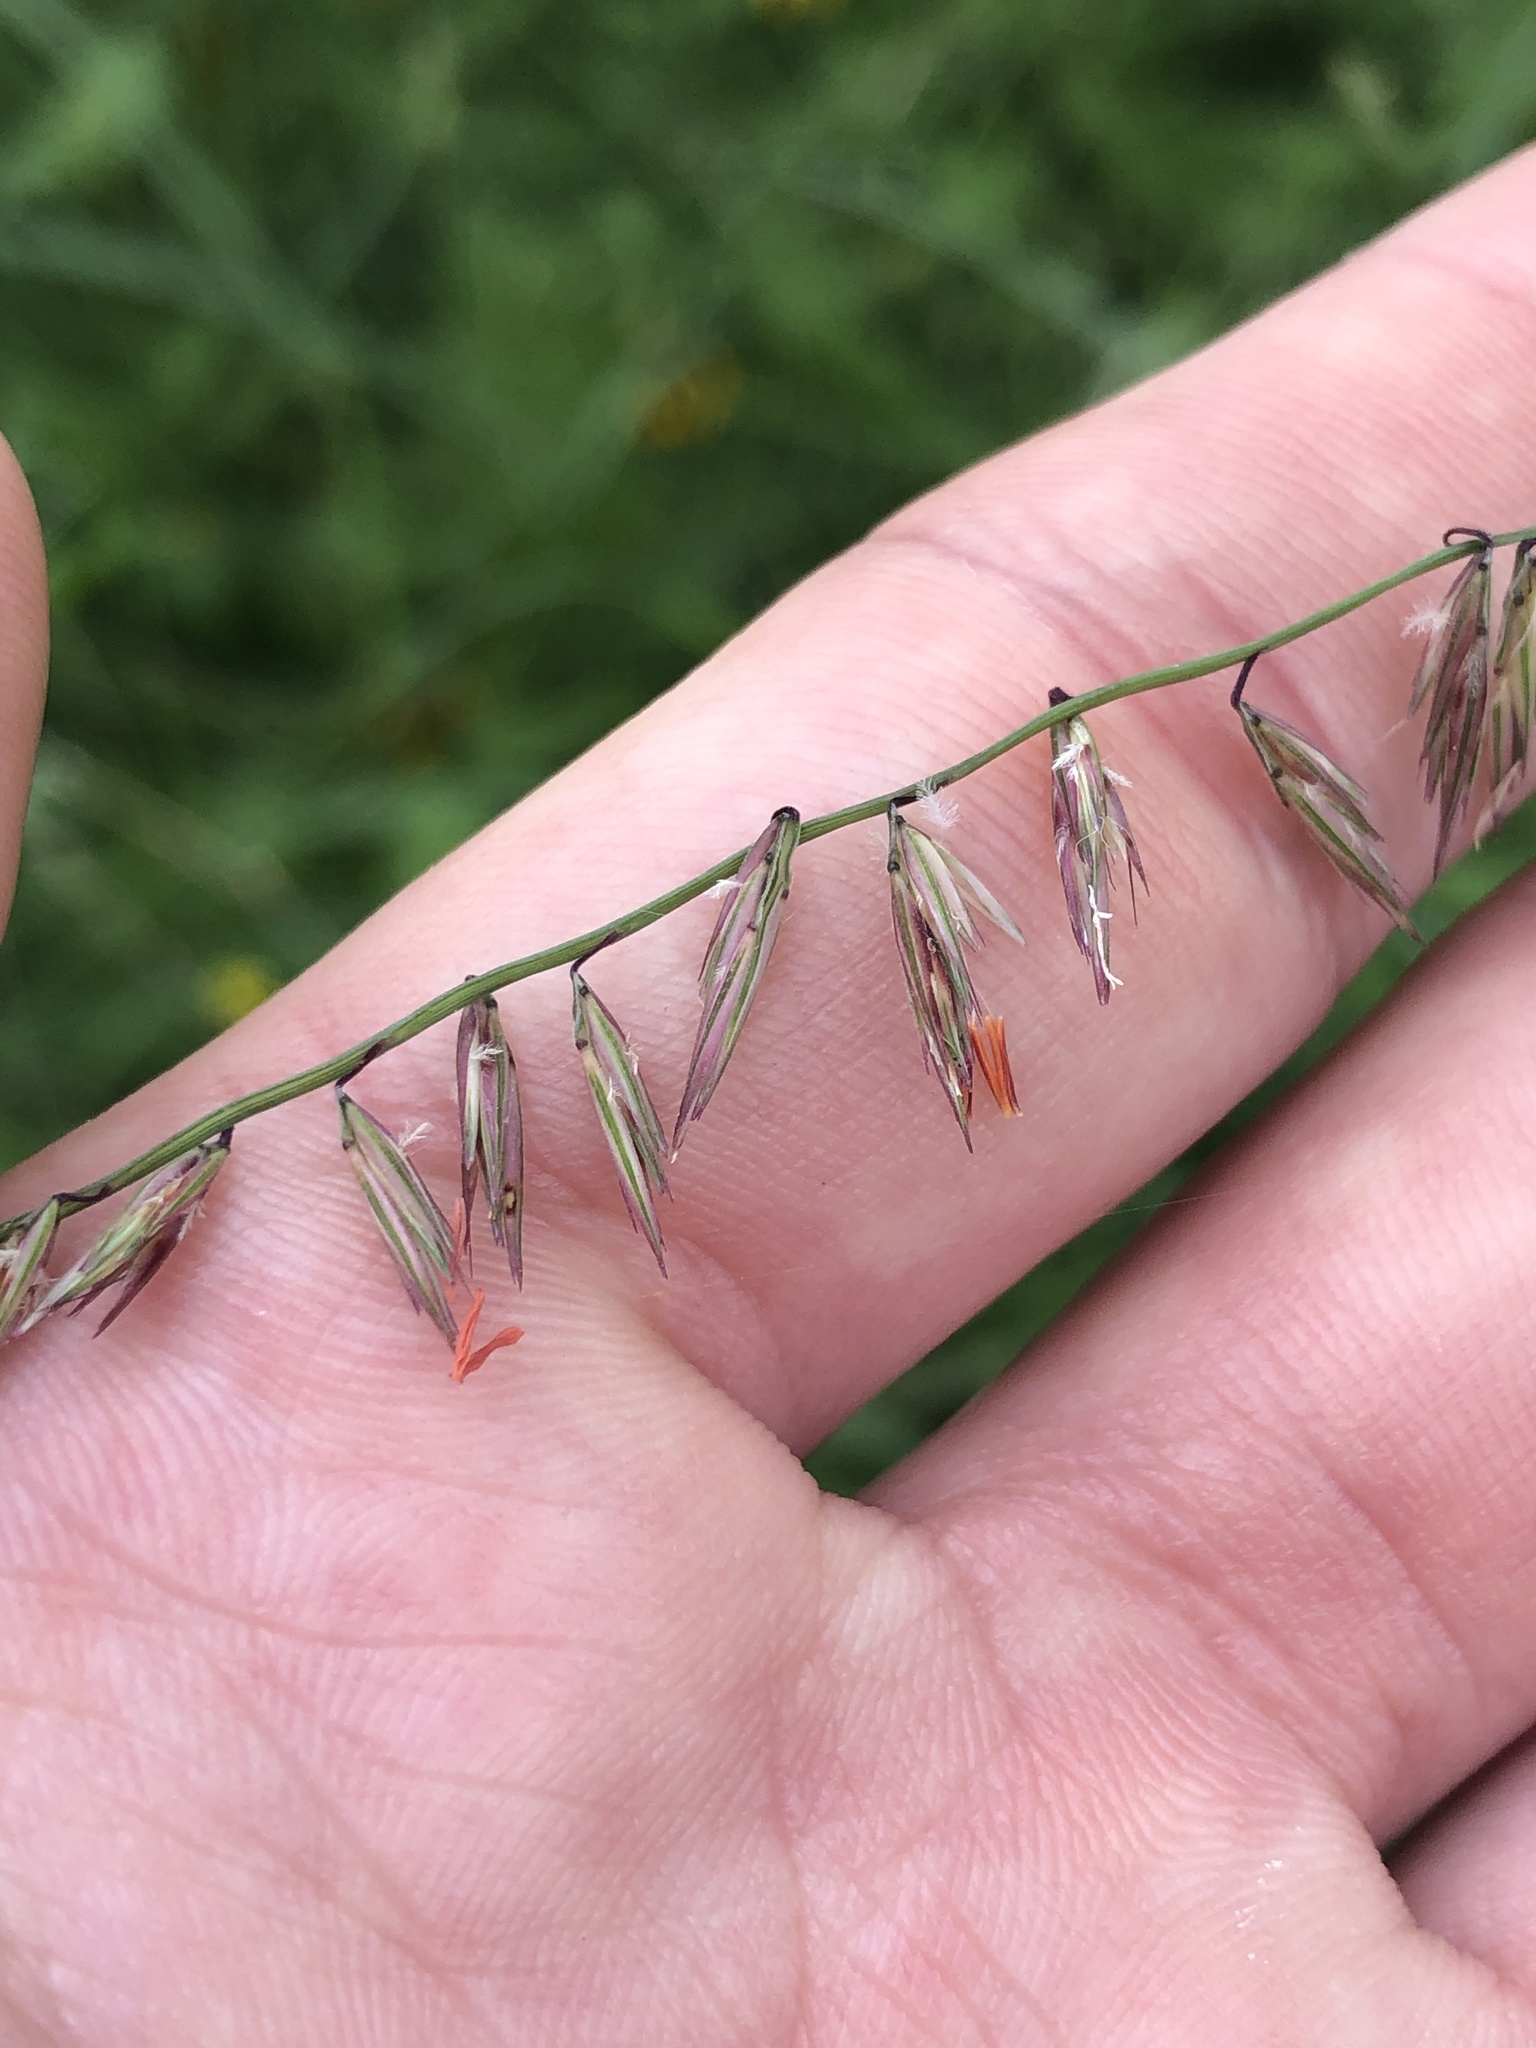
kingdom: Plantae
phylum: Tracheophyta
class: Liliopsida
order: Poales
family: Poaceae
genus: Bouteloua
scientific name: Bouteloua curtipendula
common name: Side-oats grama
